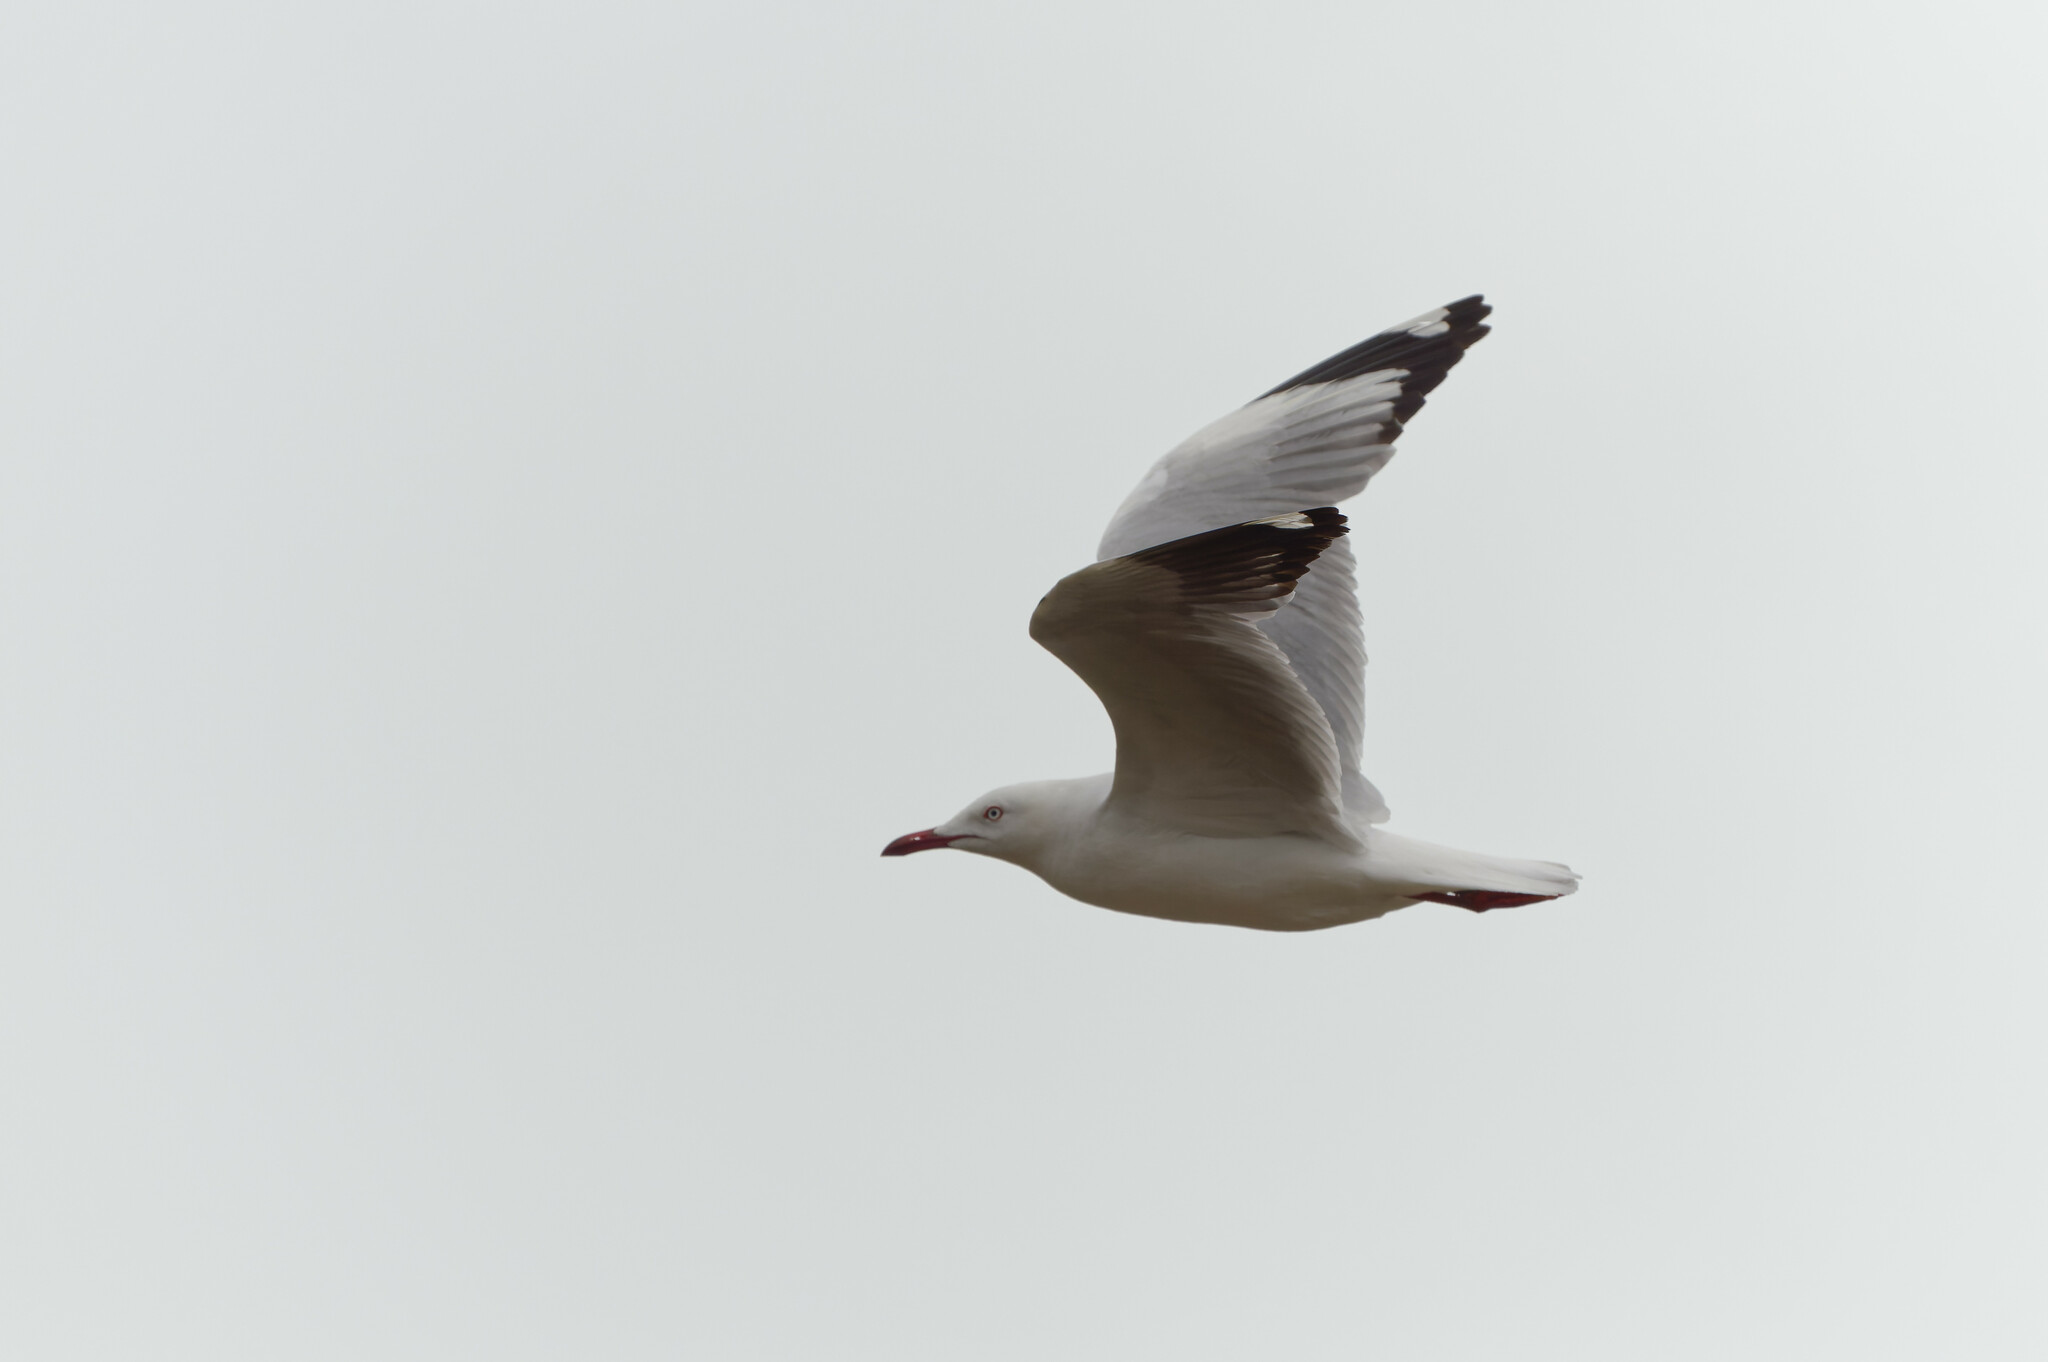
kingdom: Animalia
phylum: Chordata
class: Aves
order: Charadriiformes
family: Laridae
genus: Chroicocephalus
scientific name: Chroicocephalus novaehollandiae
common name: Silver gull
